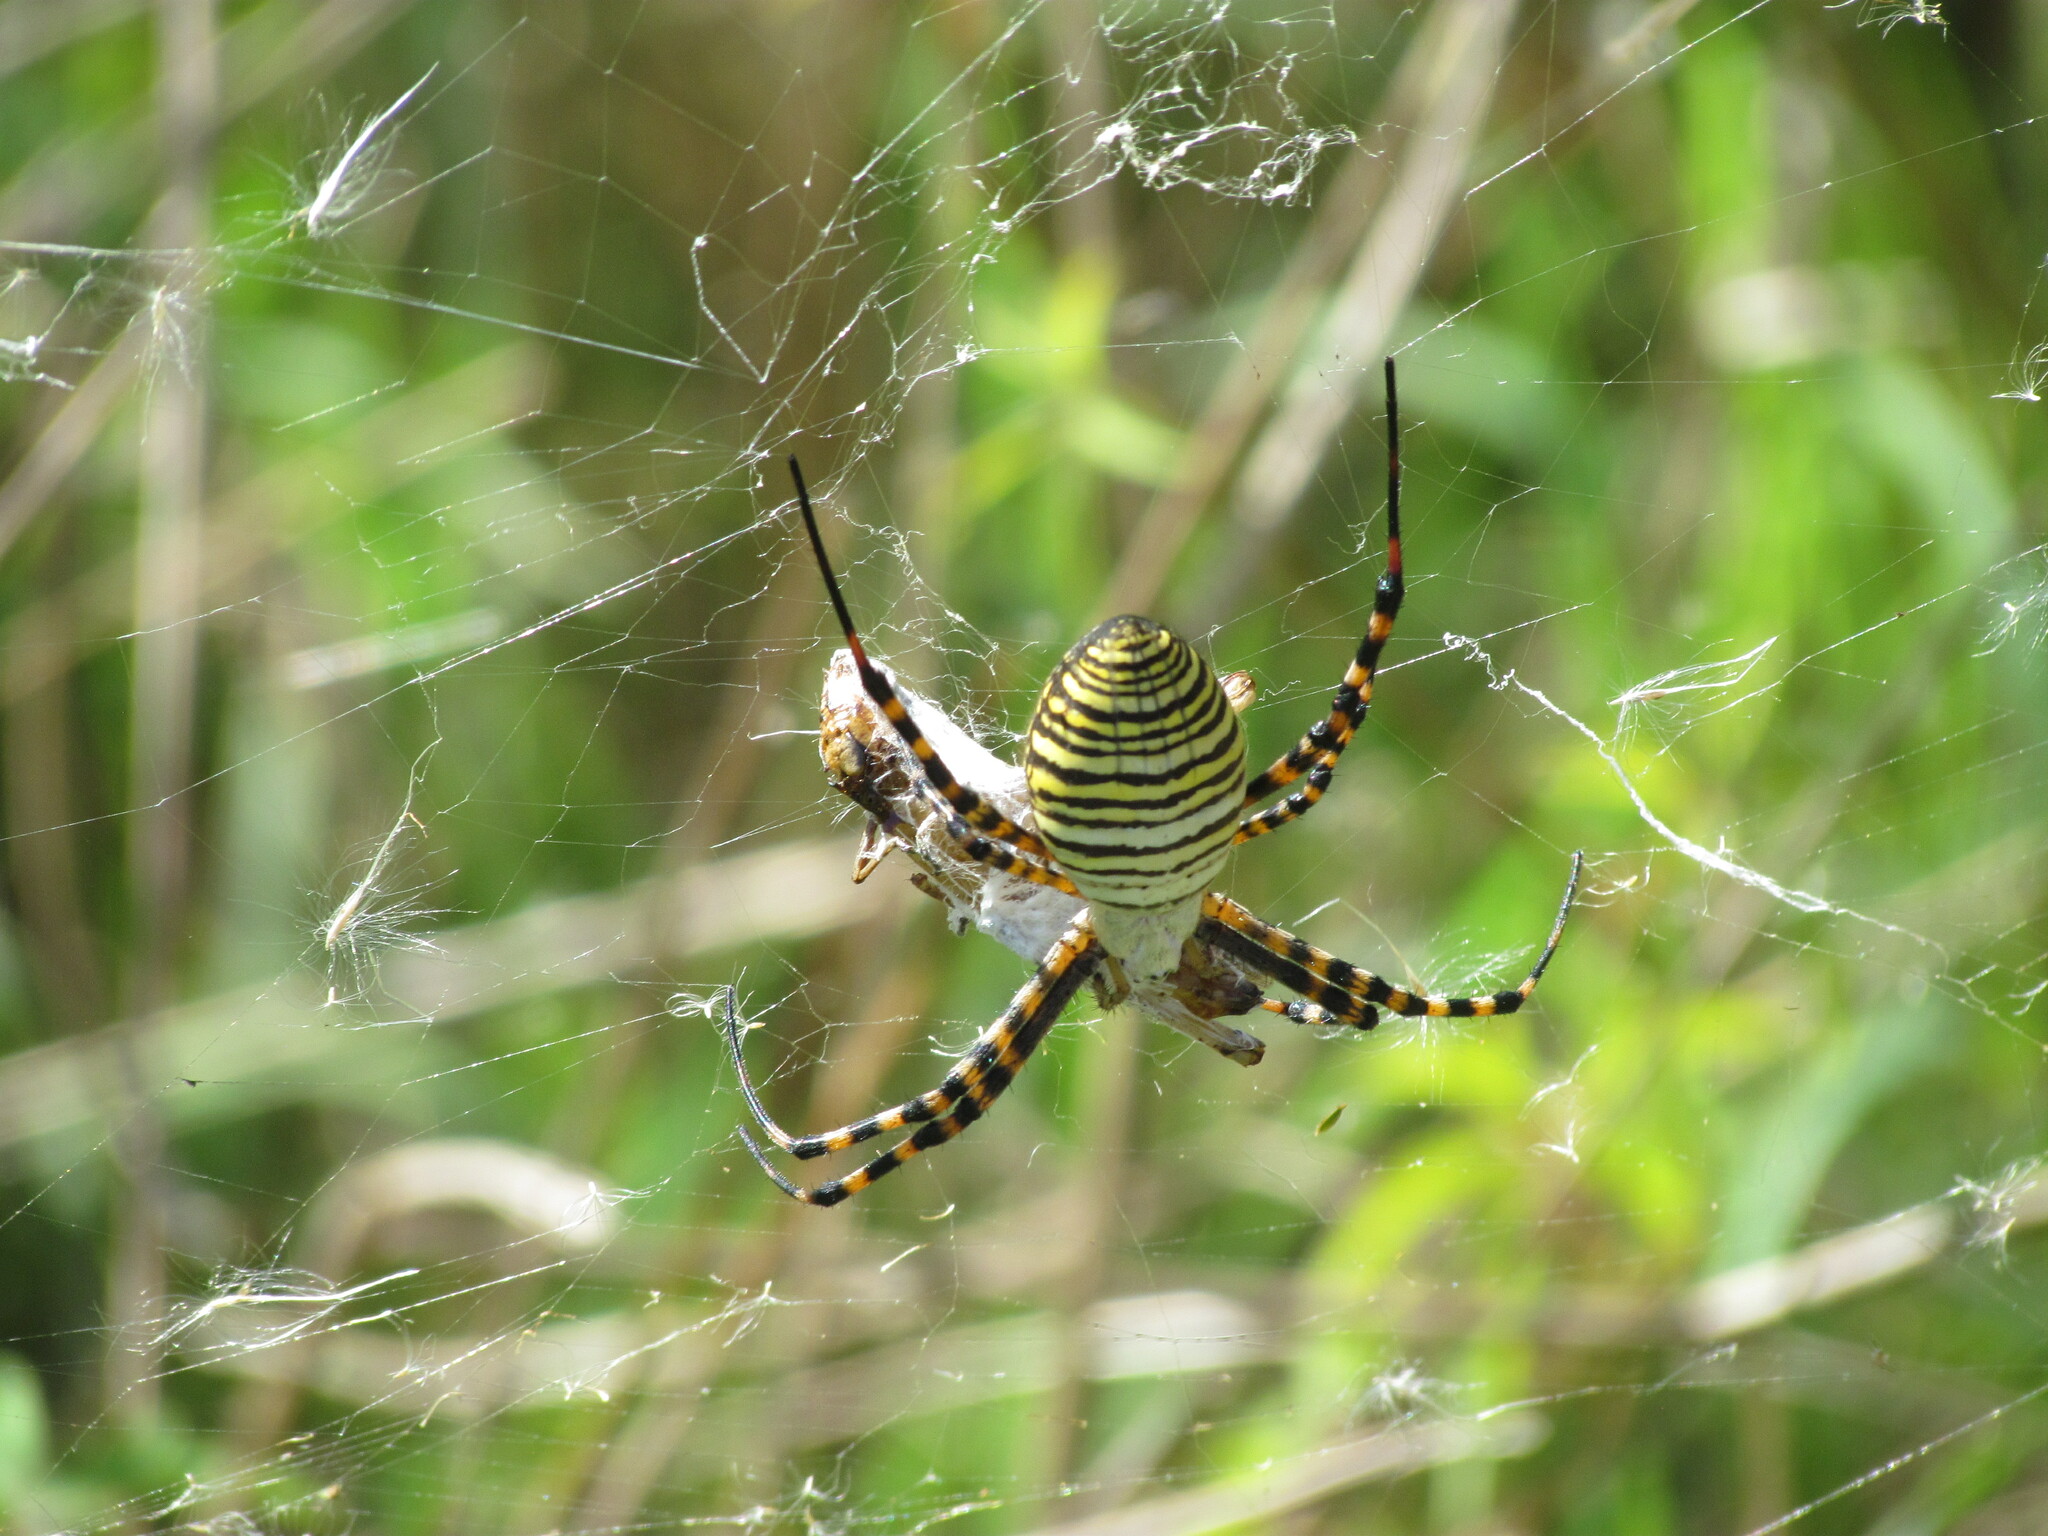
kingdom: Animalia
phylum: Arthropoda
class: Arachnida
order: Araneae
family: Araneidae
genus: Argiope
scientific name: Argiope trifasciata
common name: Banded garden spider
